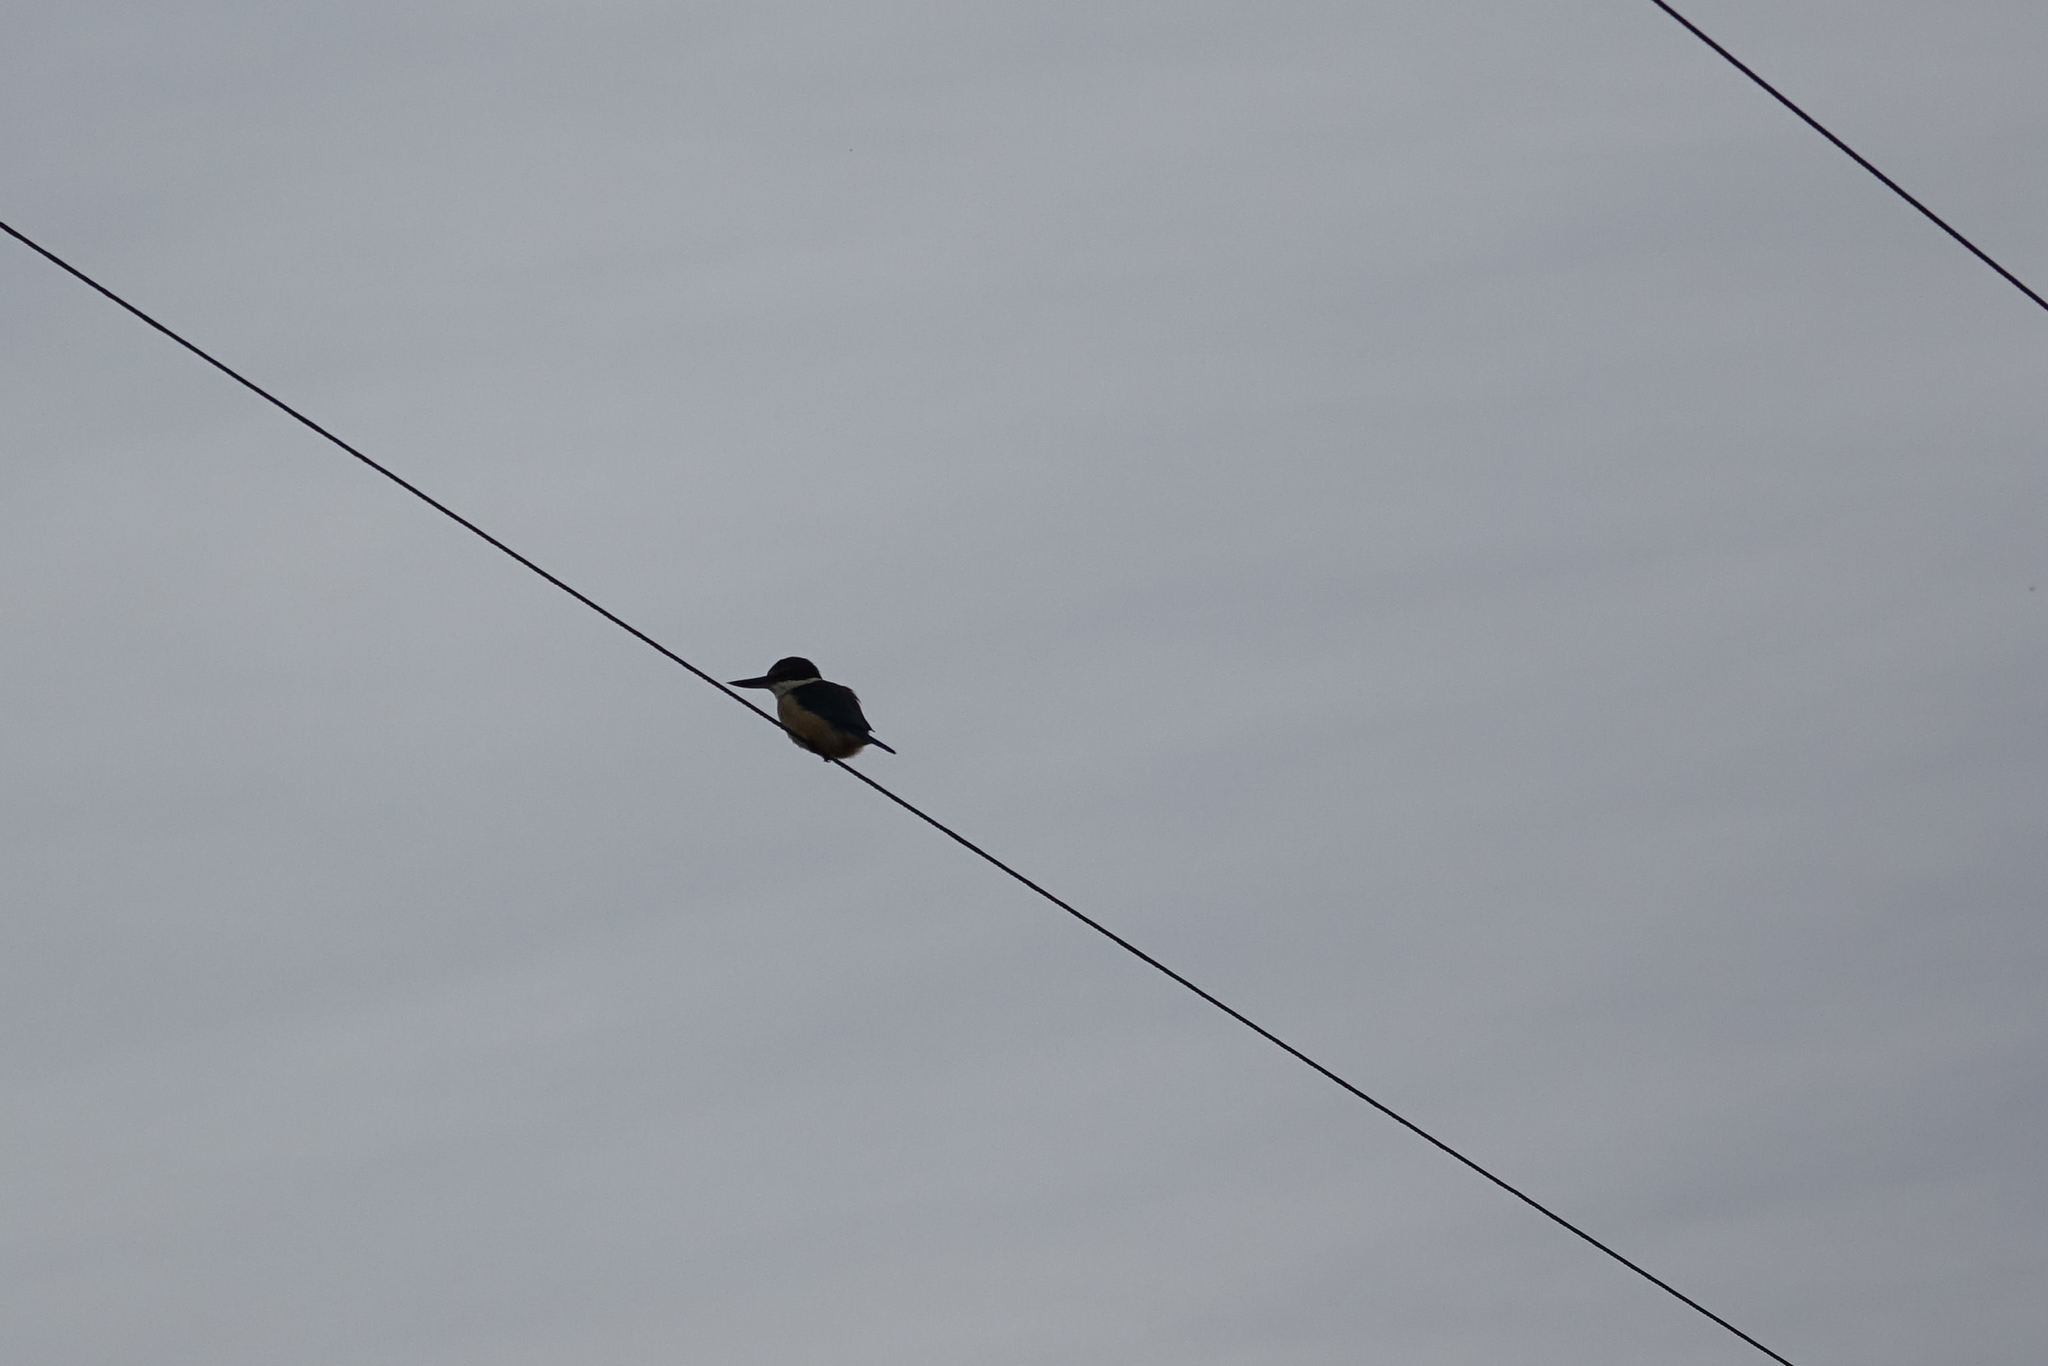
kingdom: Animalia
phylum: Chordata
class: Aves
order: Coraciiformes
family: Alcedinidae
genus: Todiramphus
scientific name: Todiramphus sanctus
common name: Sacred kingfisher
